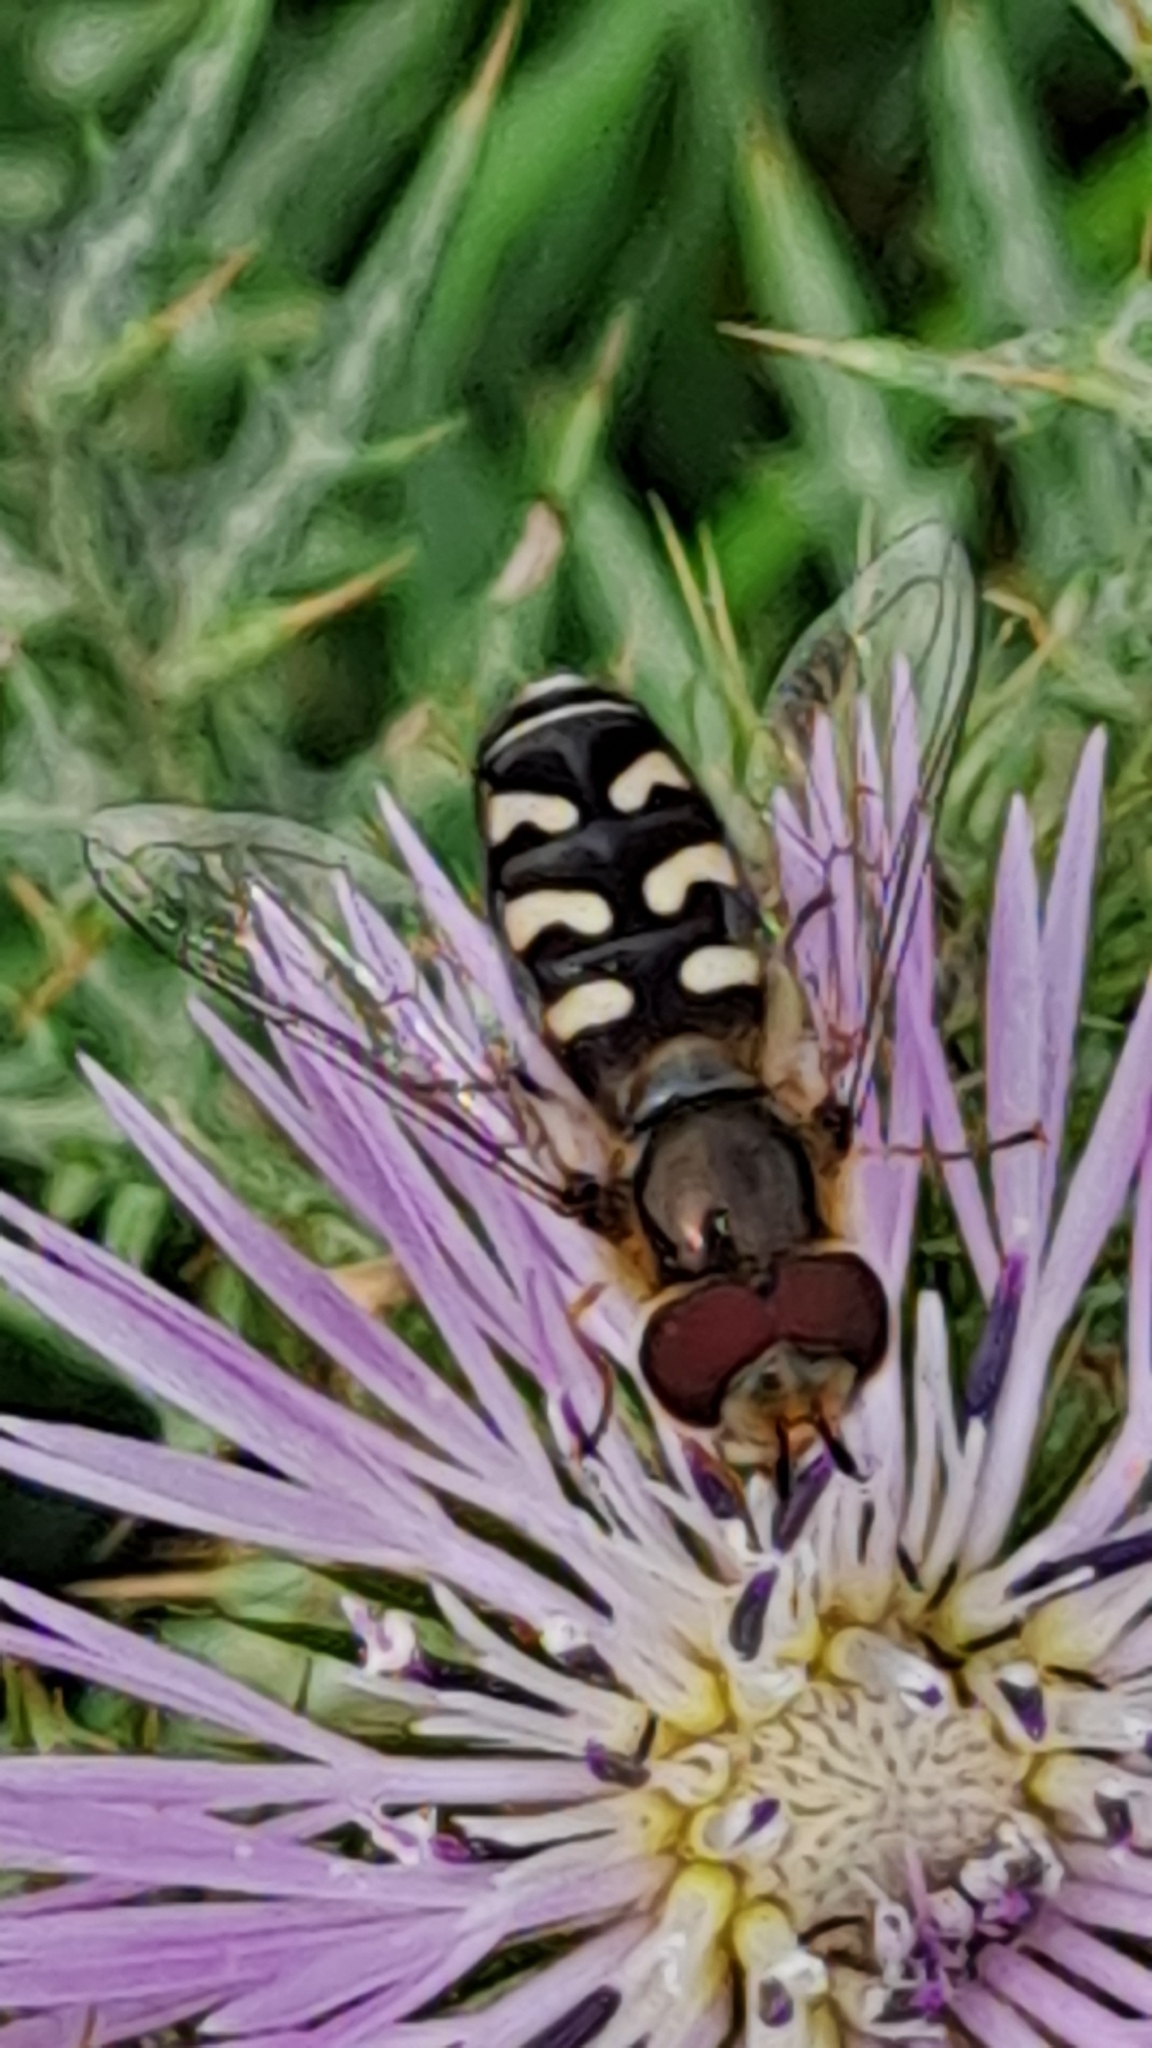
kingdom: Animalia
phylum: Arthropoda
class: Insecta
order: Diptera
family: Syrphidae
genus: Scaeva
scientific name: Scaeva pyrastri
